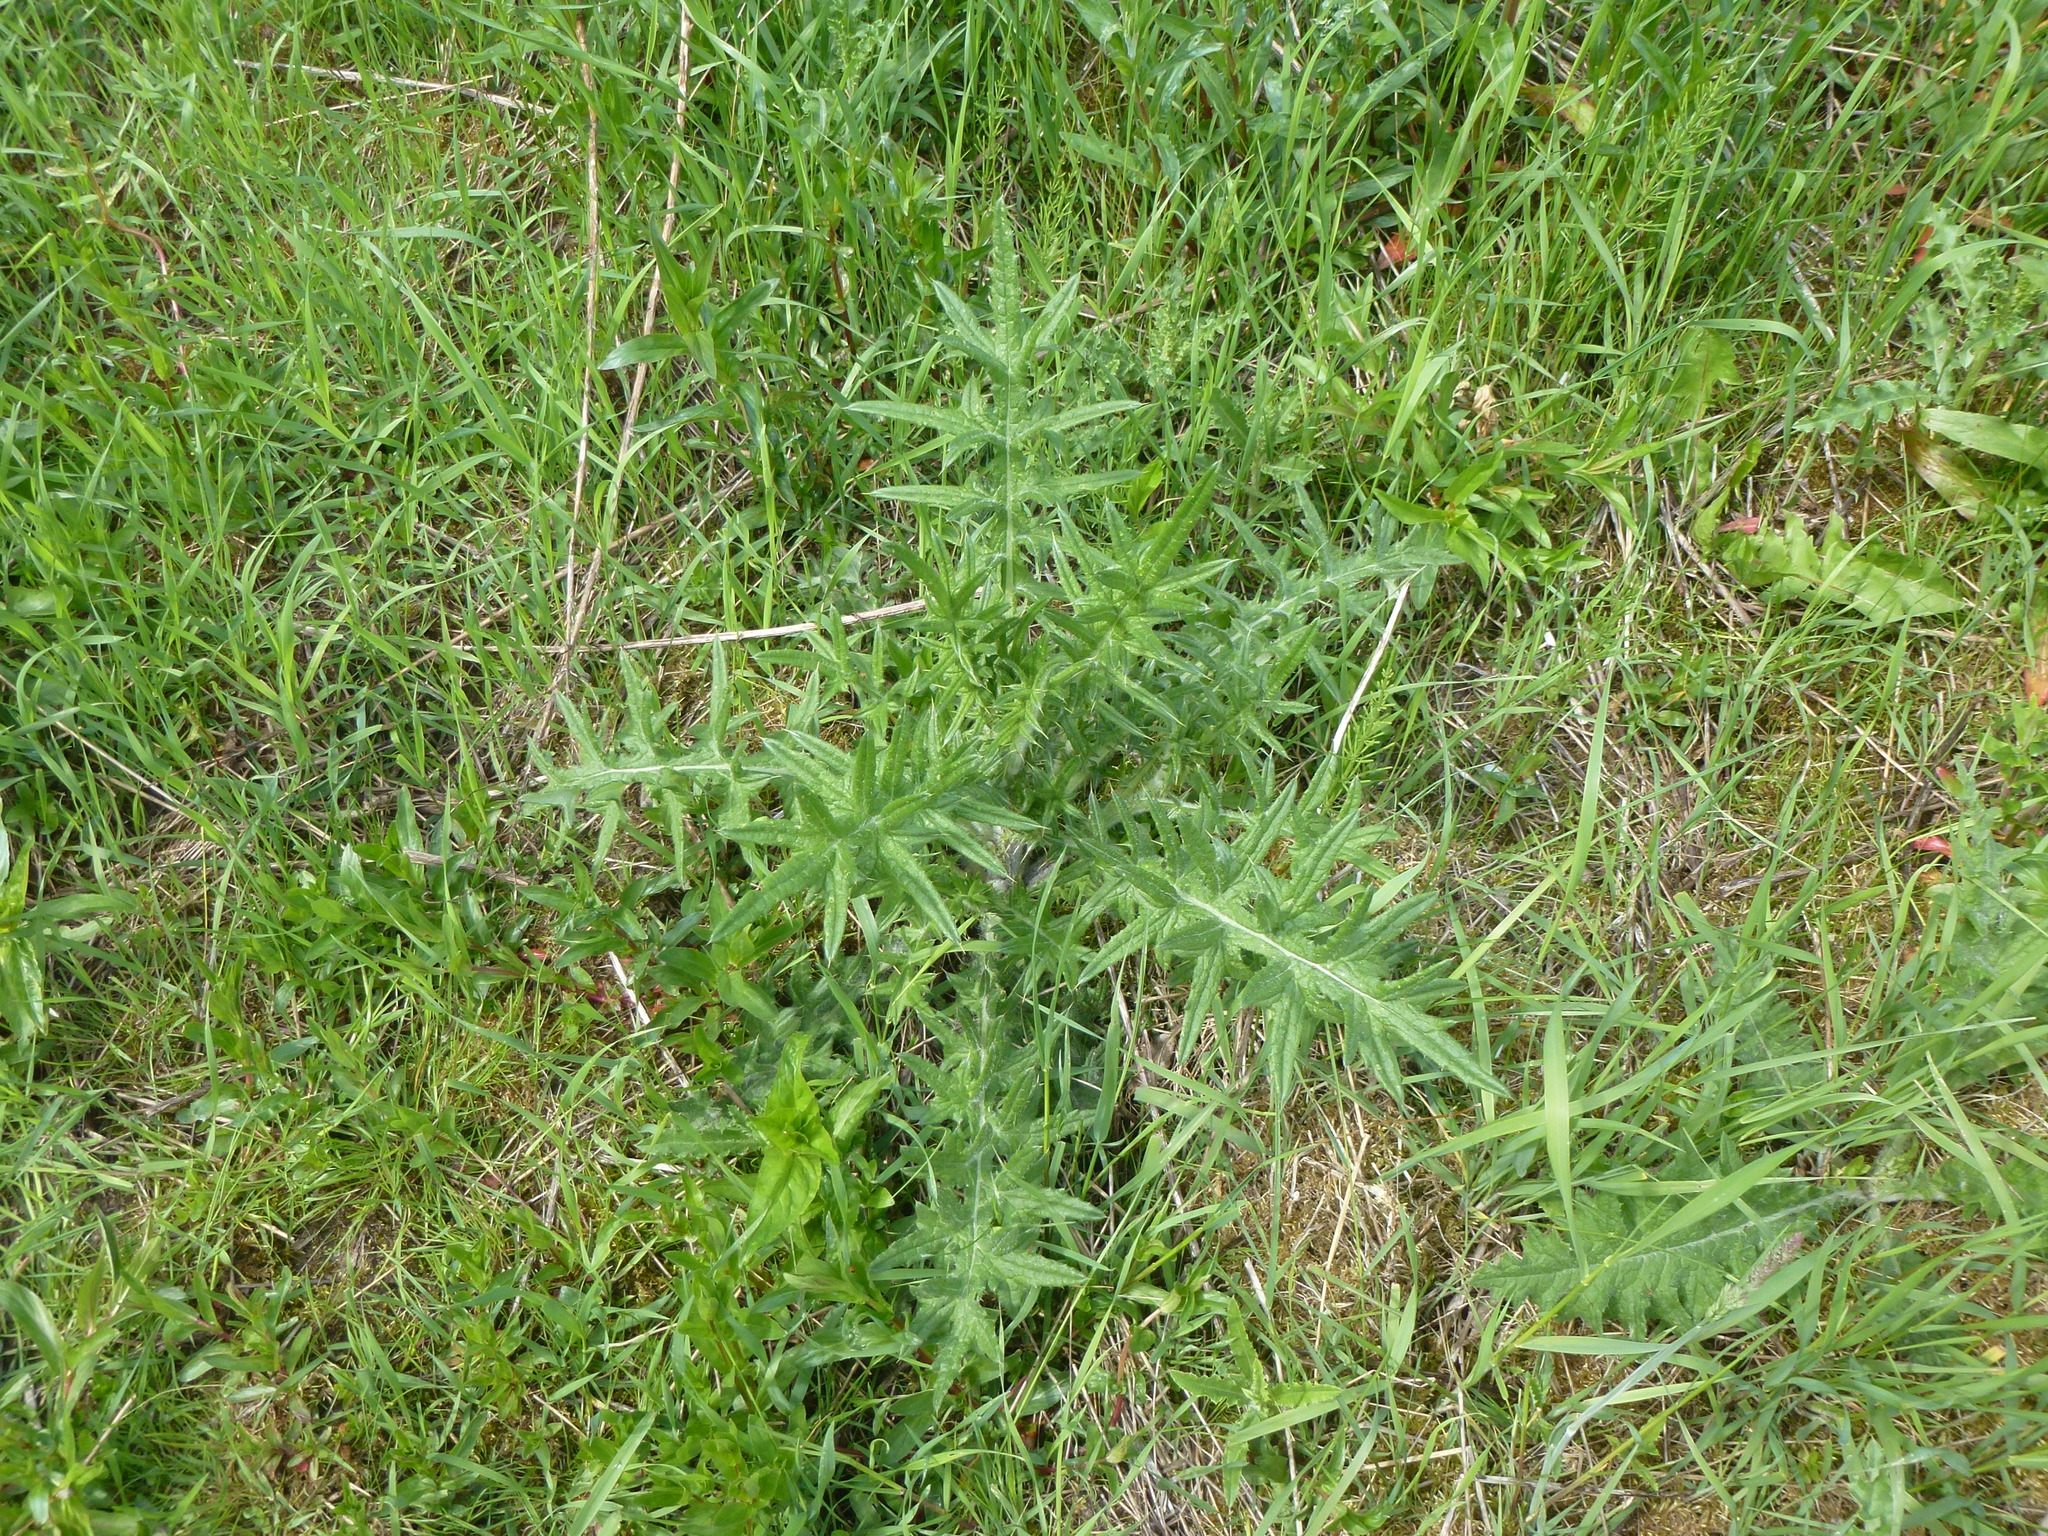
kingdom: Plantae
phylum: Tracheophyta
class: Magnoliopsida
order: Asterales
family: Asteraceae
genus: Cirsium
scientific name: Cirsium vulgare
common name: Bull thistle
